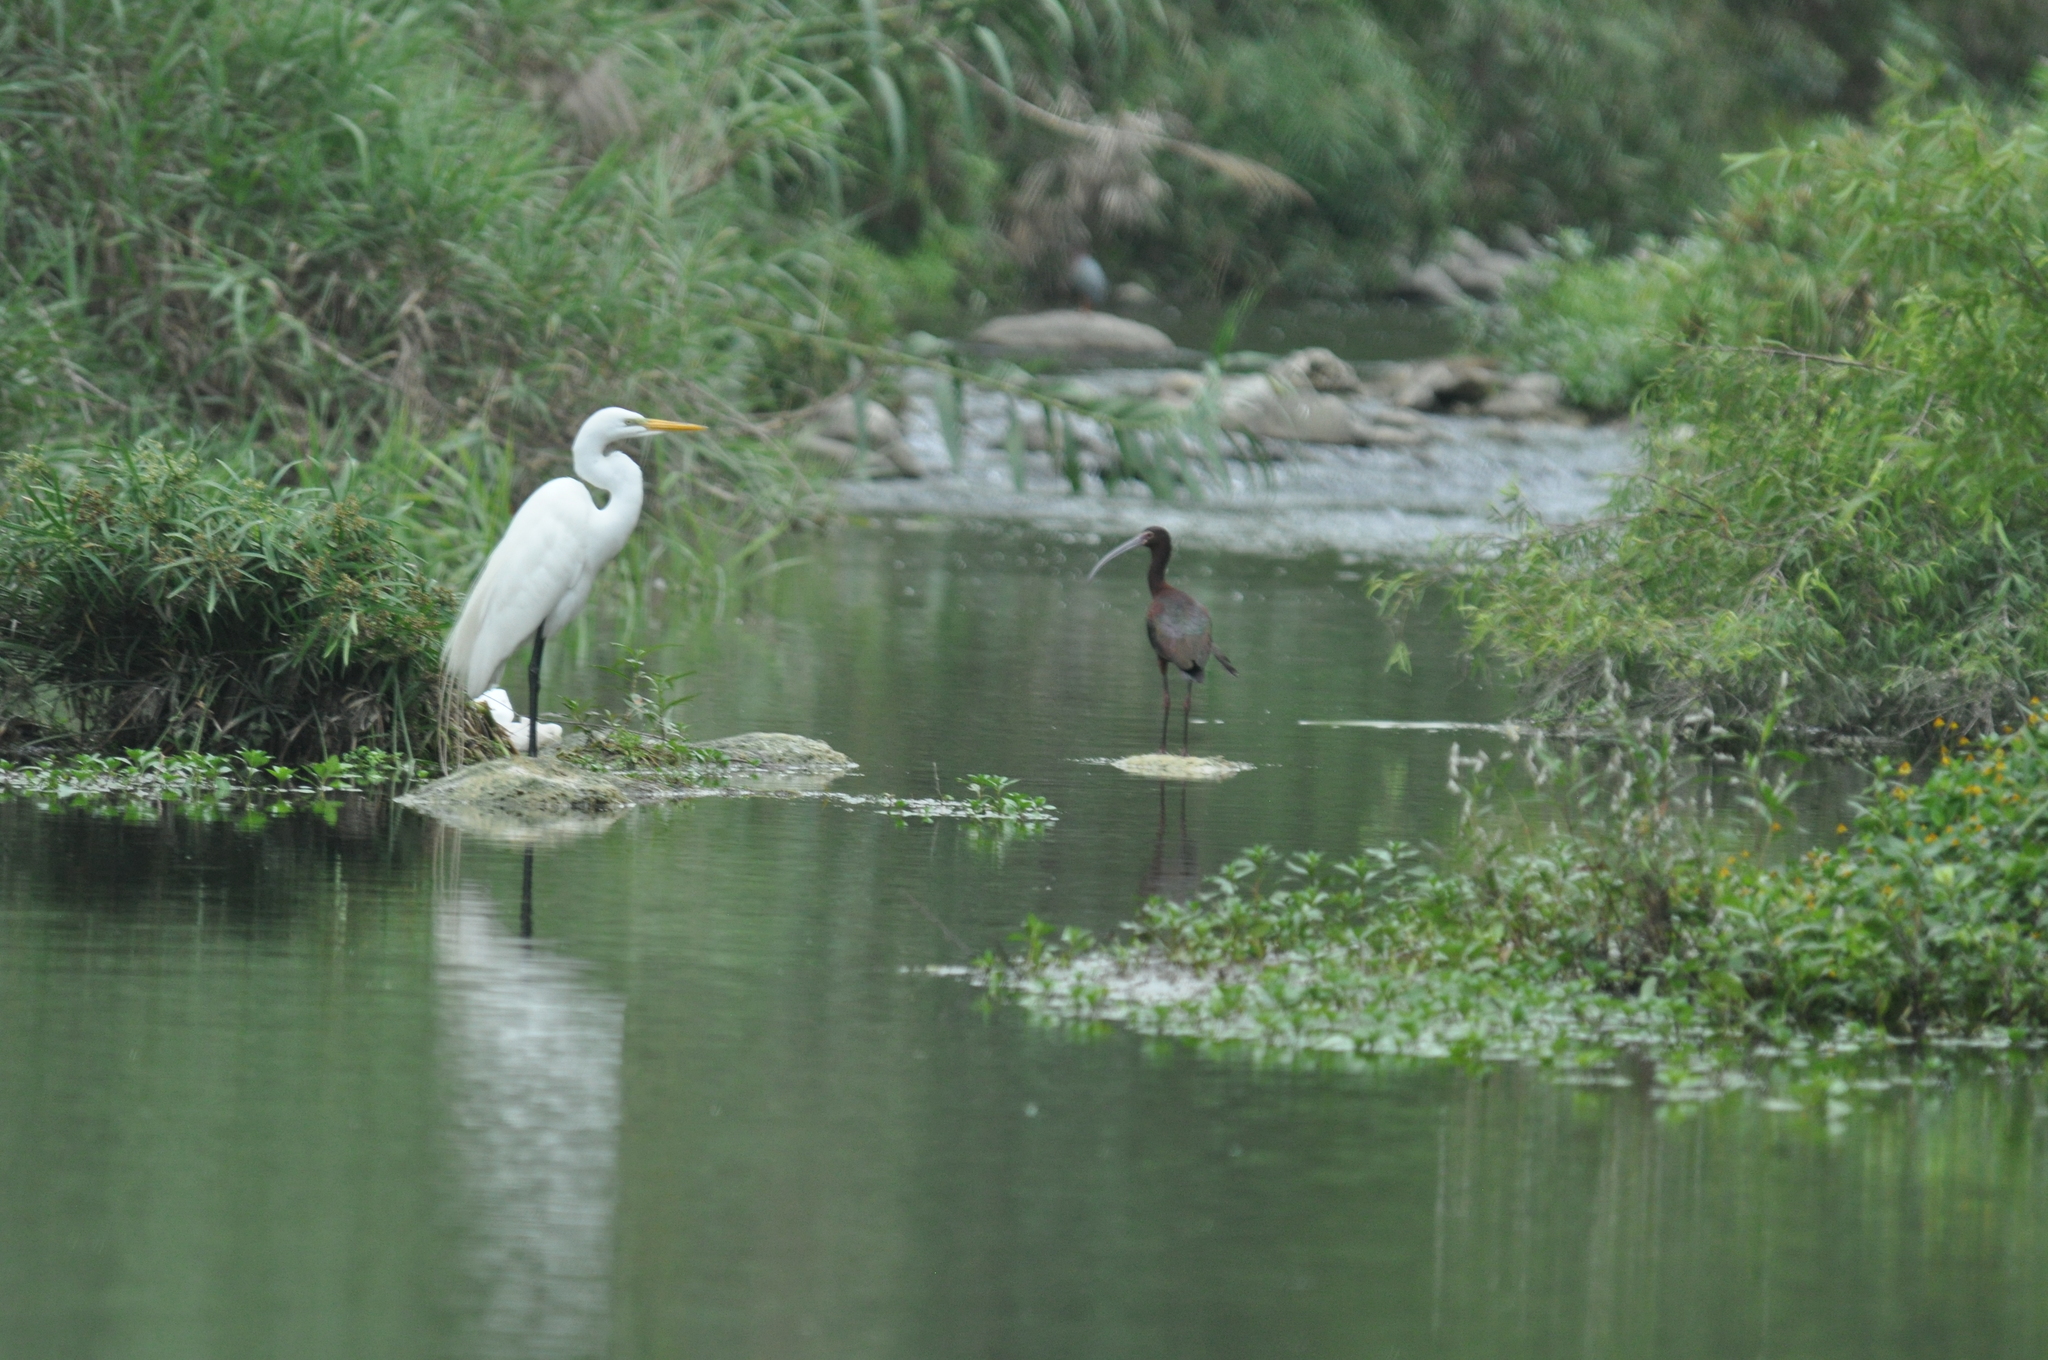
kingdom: Animalia
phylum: Chordata
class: Aves
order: Pelecaniformes
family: Threskiornithidae
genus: Plegadis
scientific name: Plegadis chihi
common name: White-faced ibis
